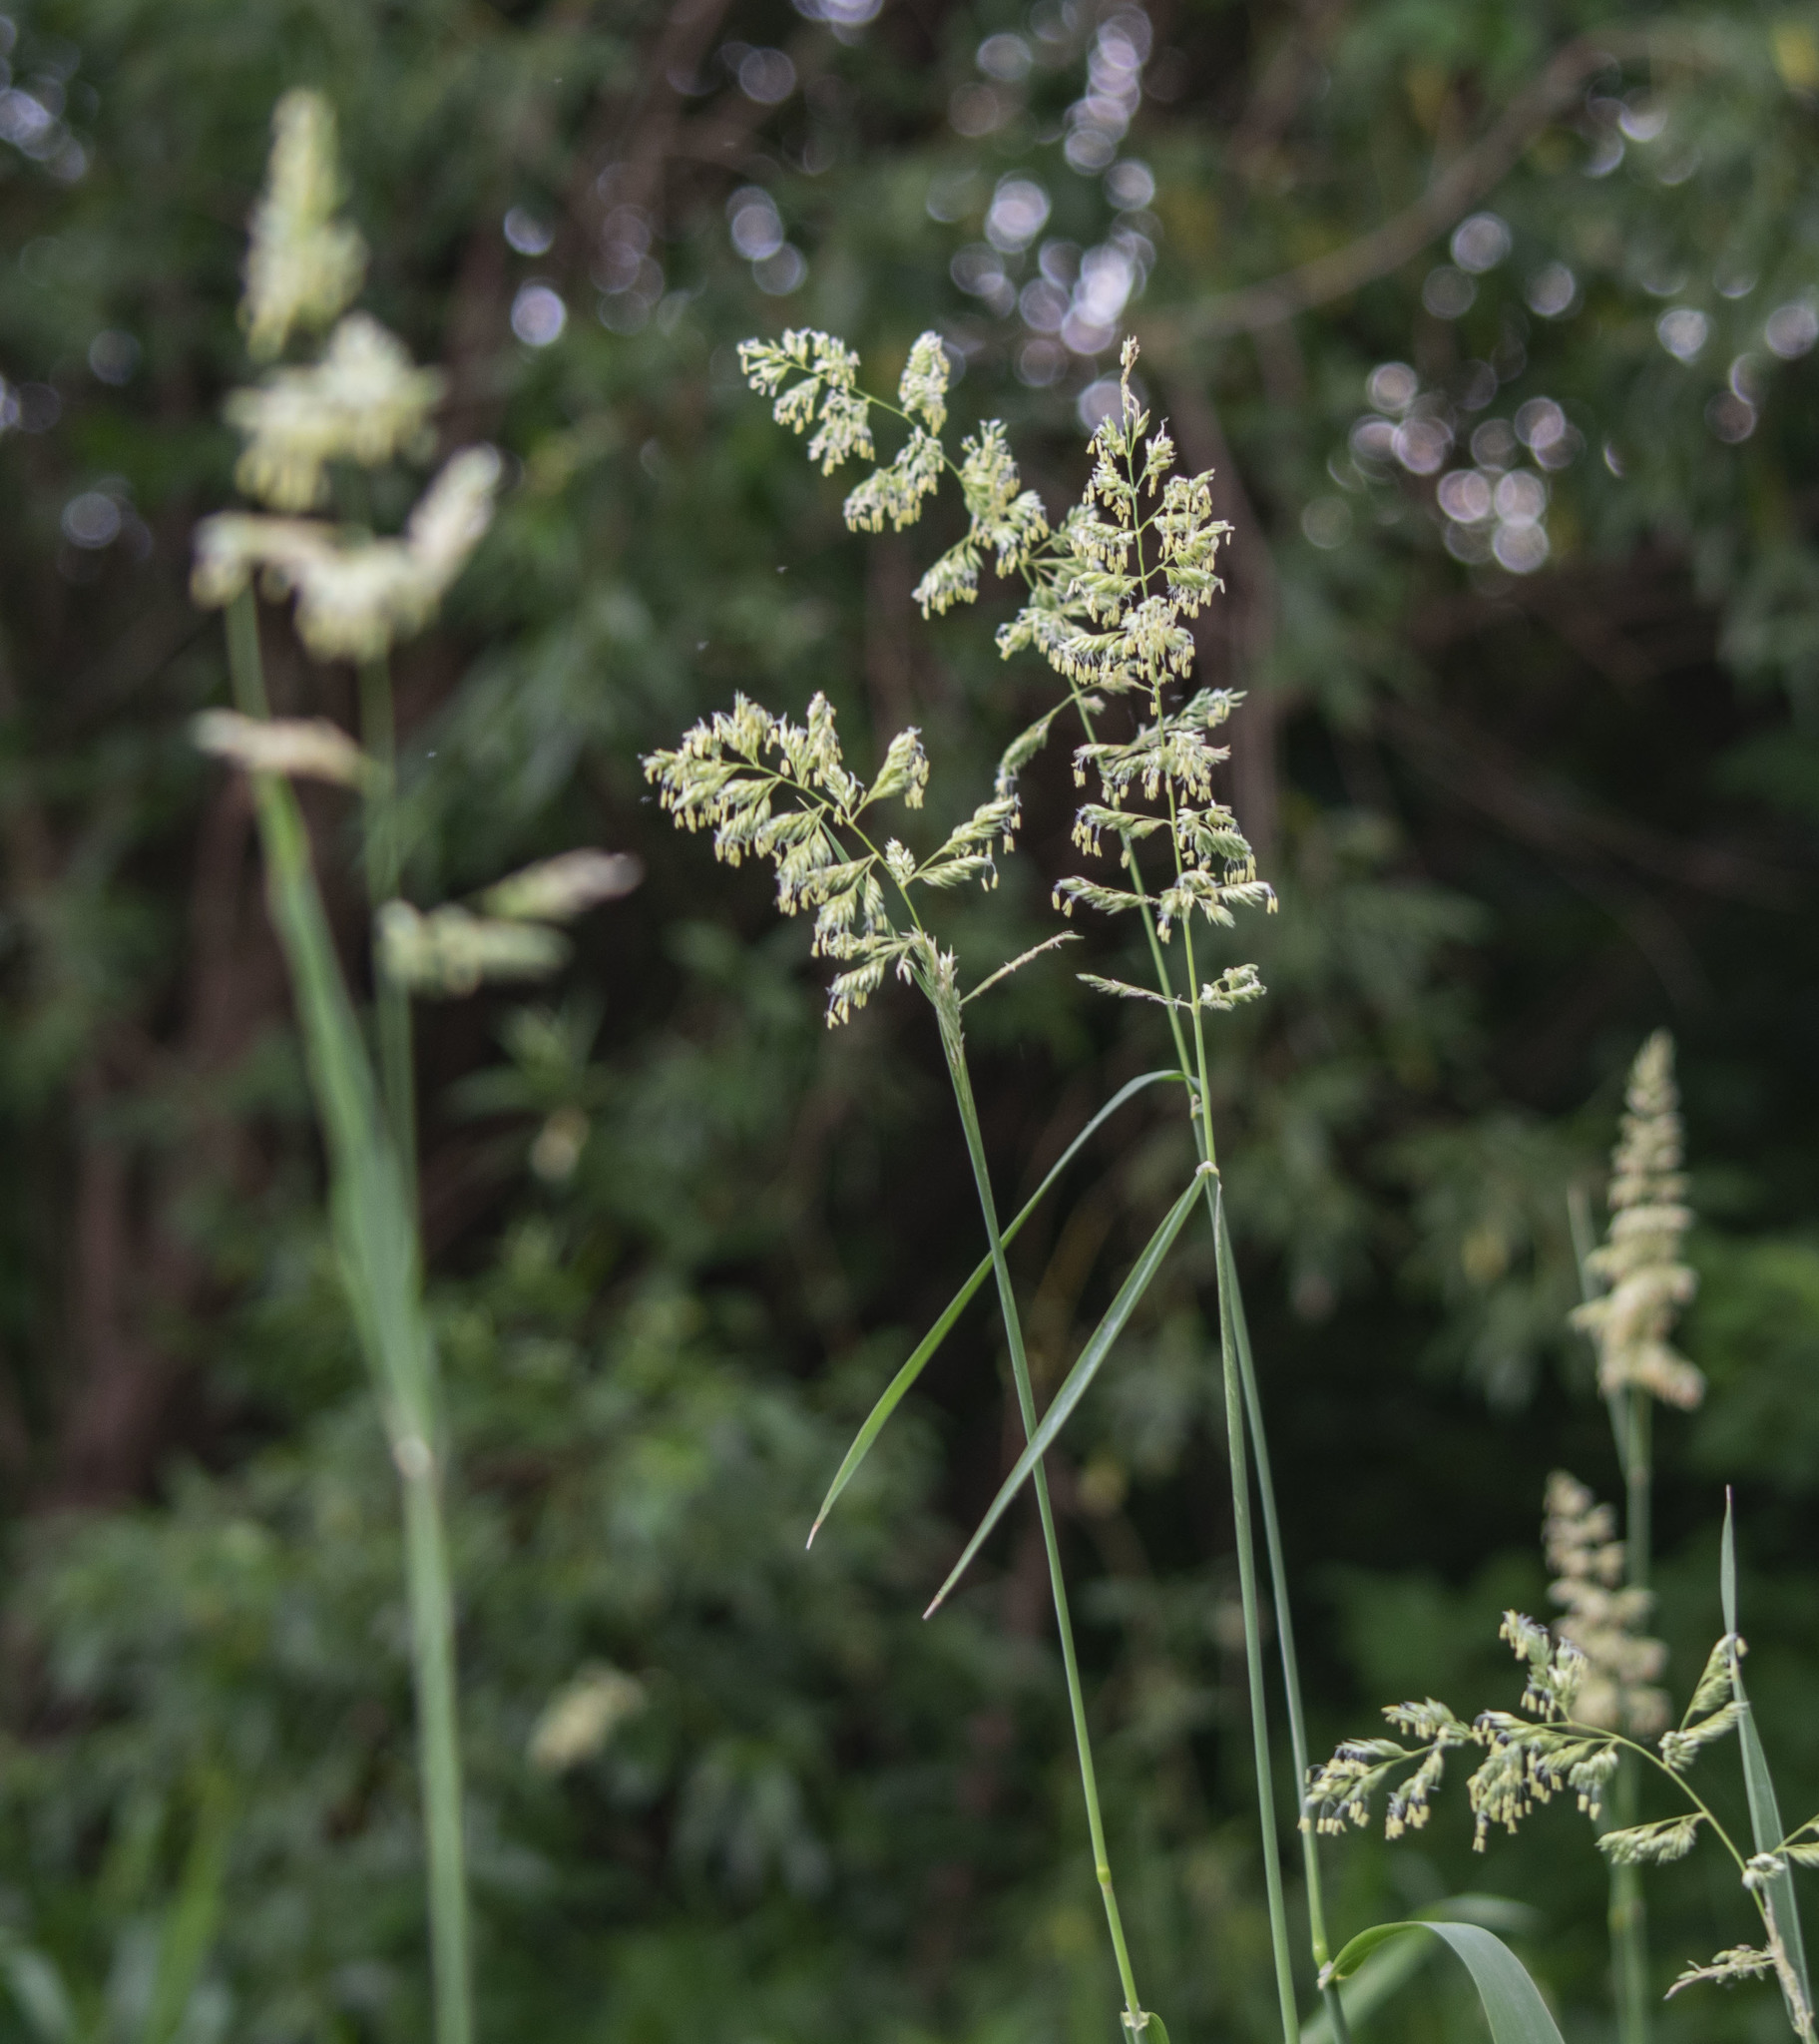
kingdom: Plantae
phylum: Tracheophyta
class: Liliopsida
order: Poales
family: Poaceae
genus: Phalaris
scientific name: Phalaris arundinacea
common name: Reed canary-grass
